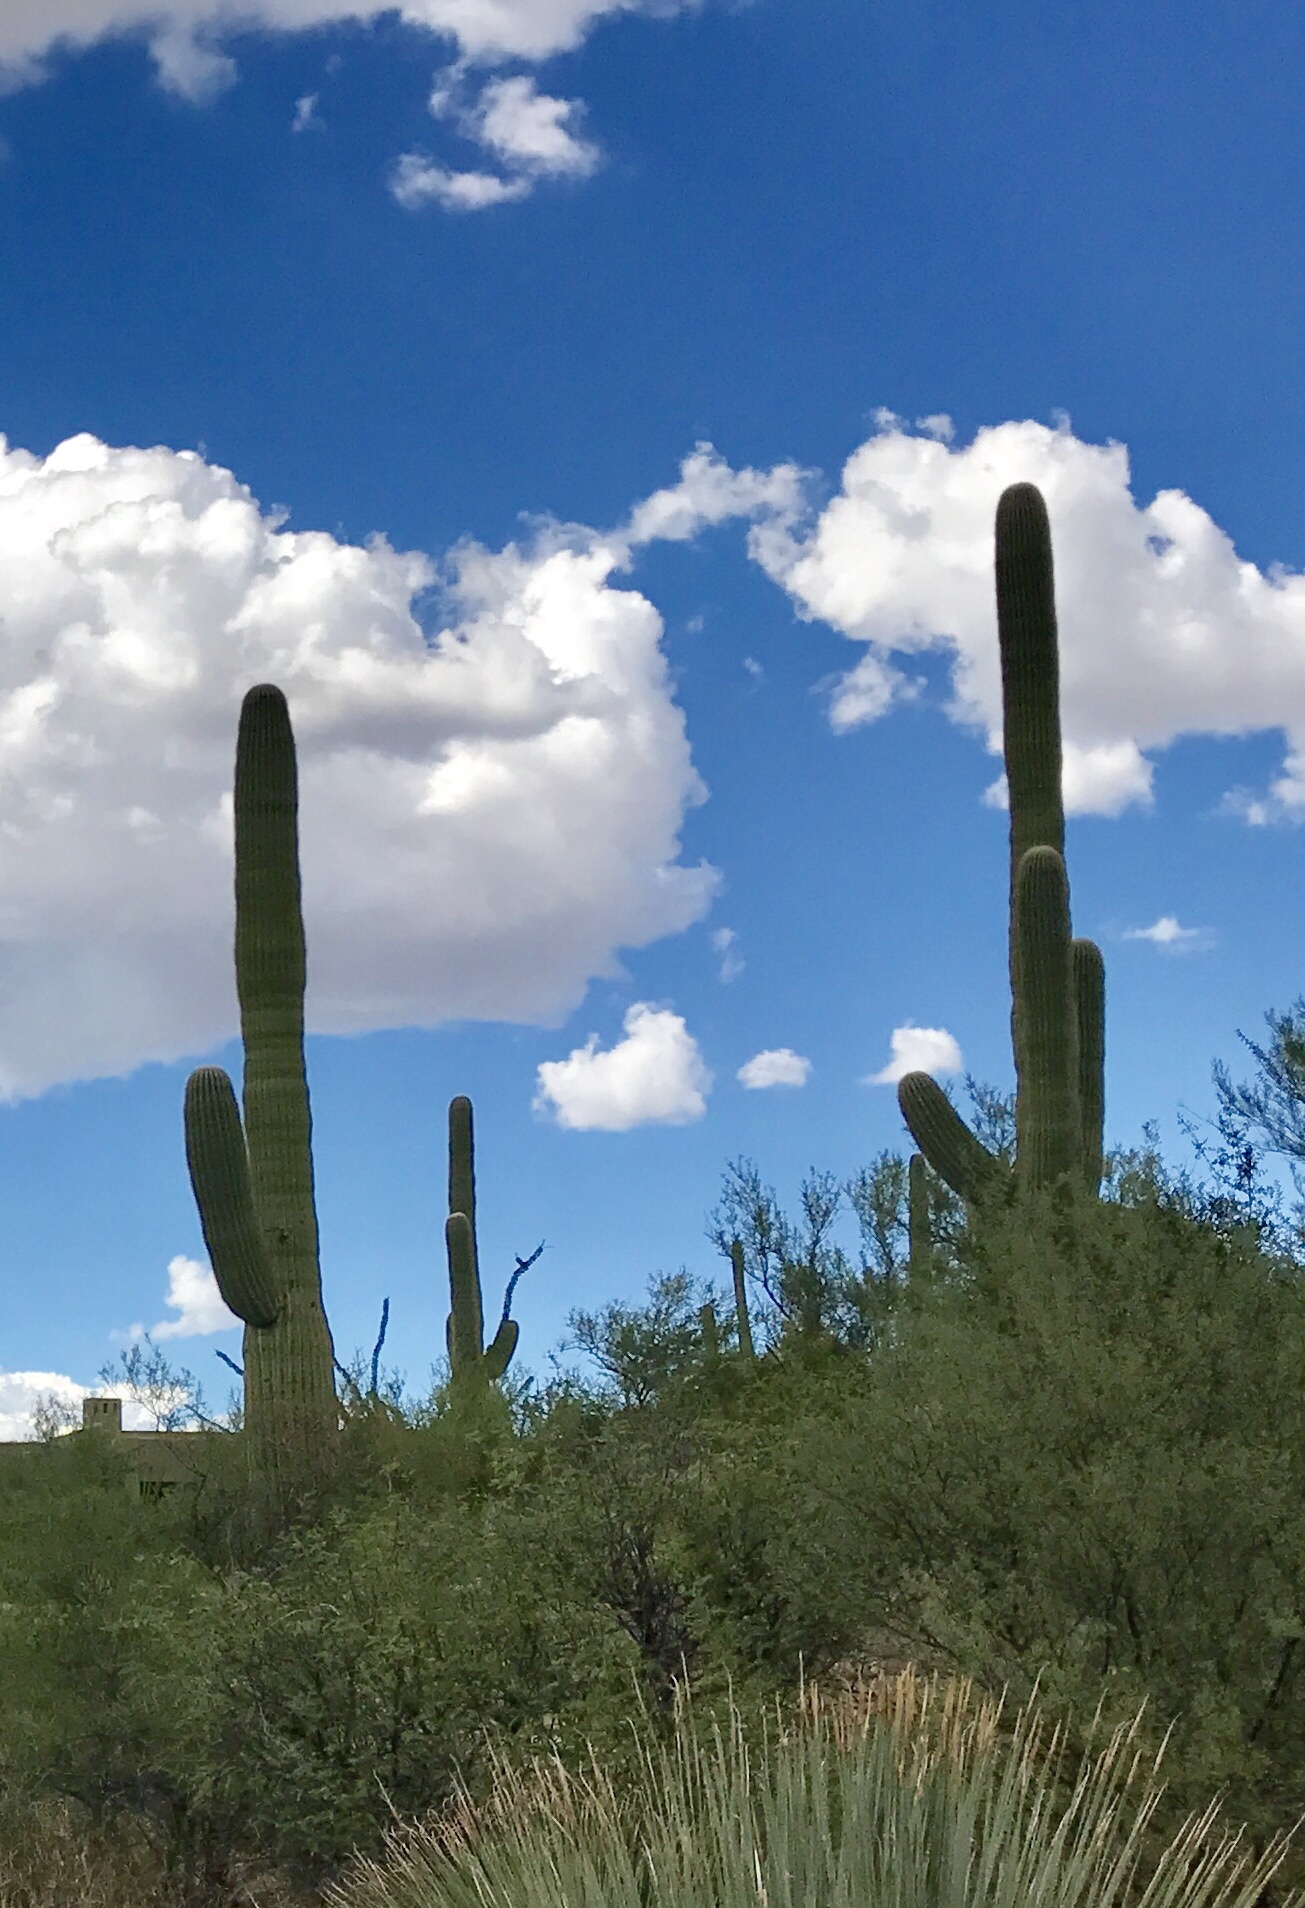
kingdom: Plantae
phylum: Tracheophyta
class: Magnoliopsida
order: Caryophyllales
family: Cactaceae
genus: Carnegiea
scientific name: Carnegiea gigantea
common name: Saguaro
